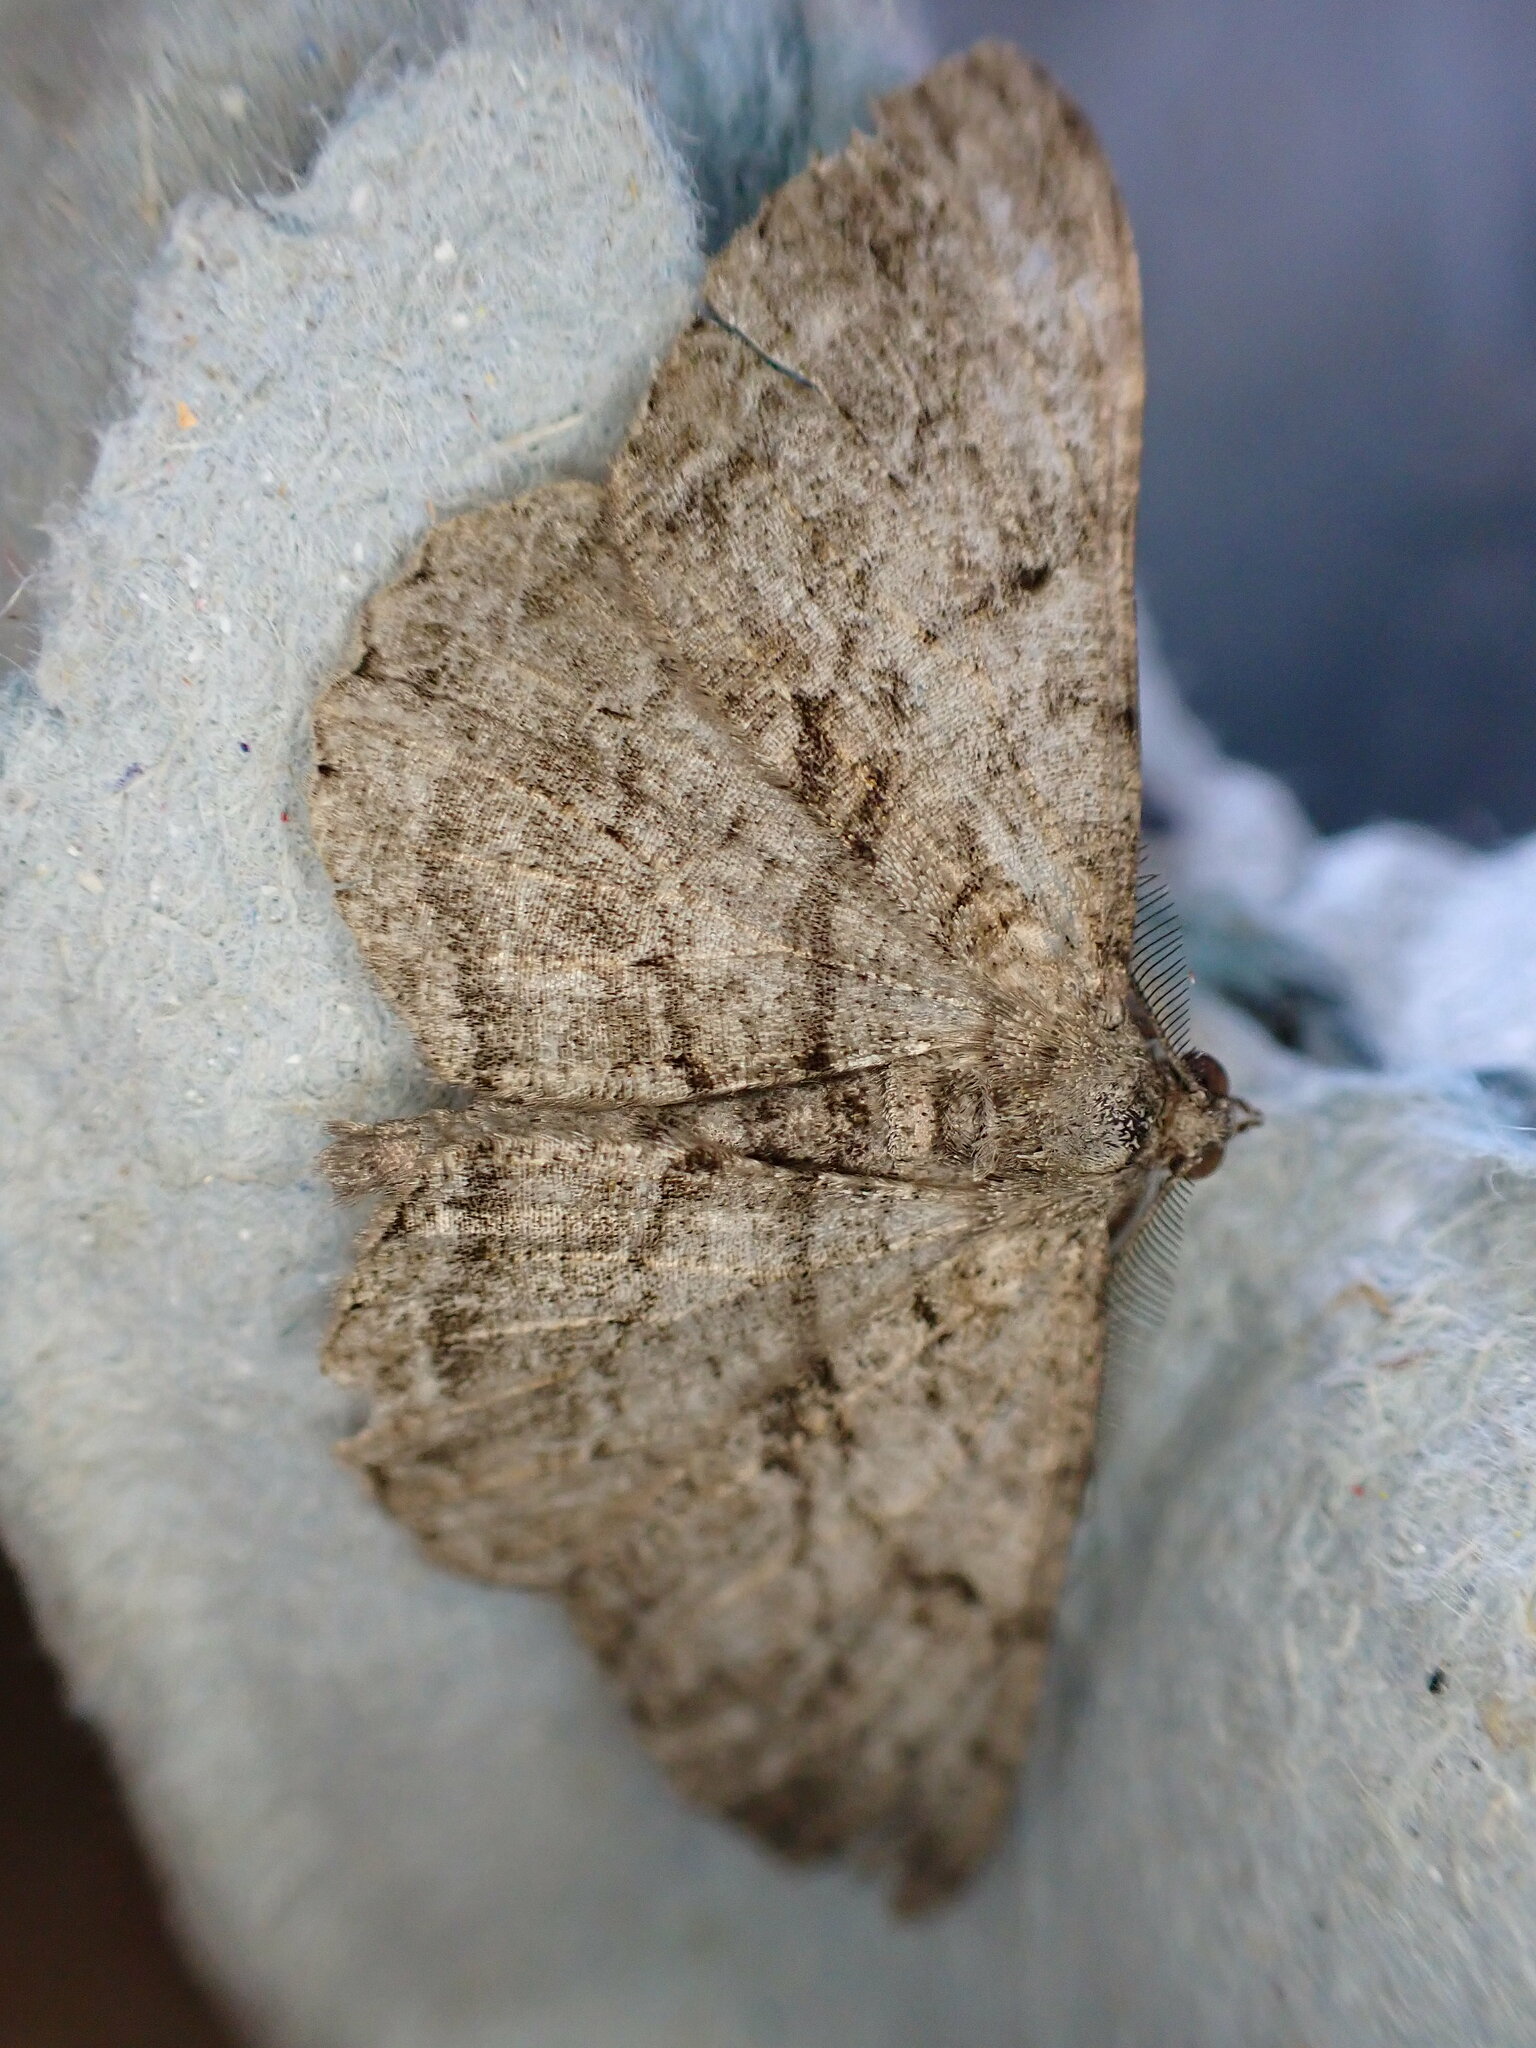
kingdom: Animalia
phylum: Arthropoda
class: Insecta
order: Lepidoptera
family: Geometridae
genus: Peribatodes
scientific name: Peribatodes rhomboidaria
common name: Willow beauty
